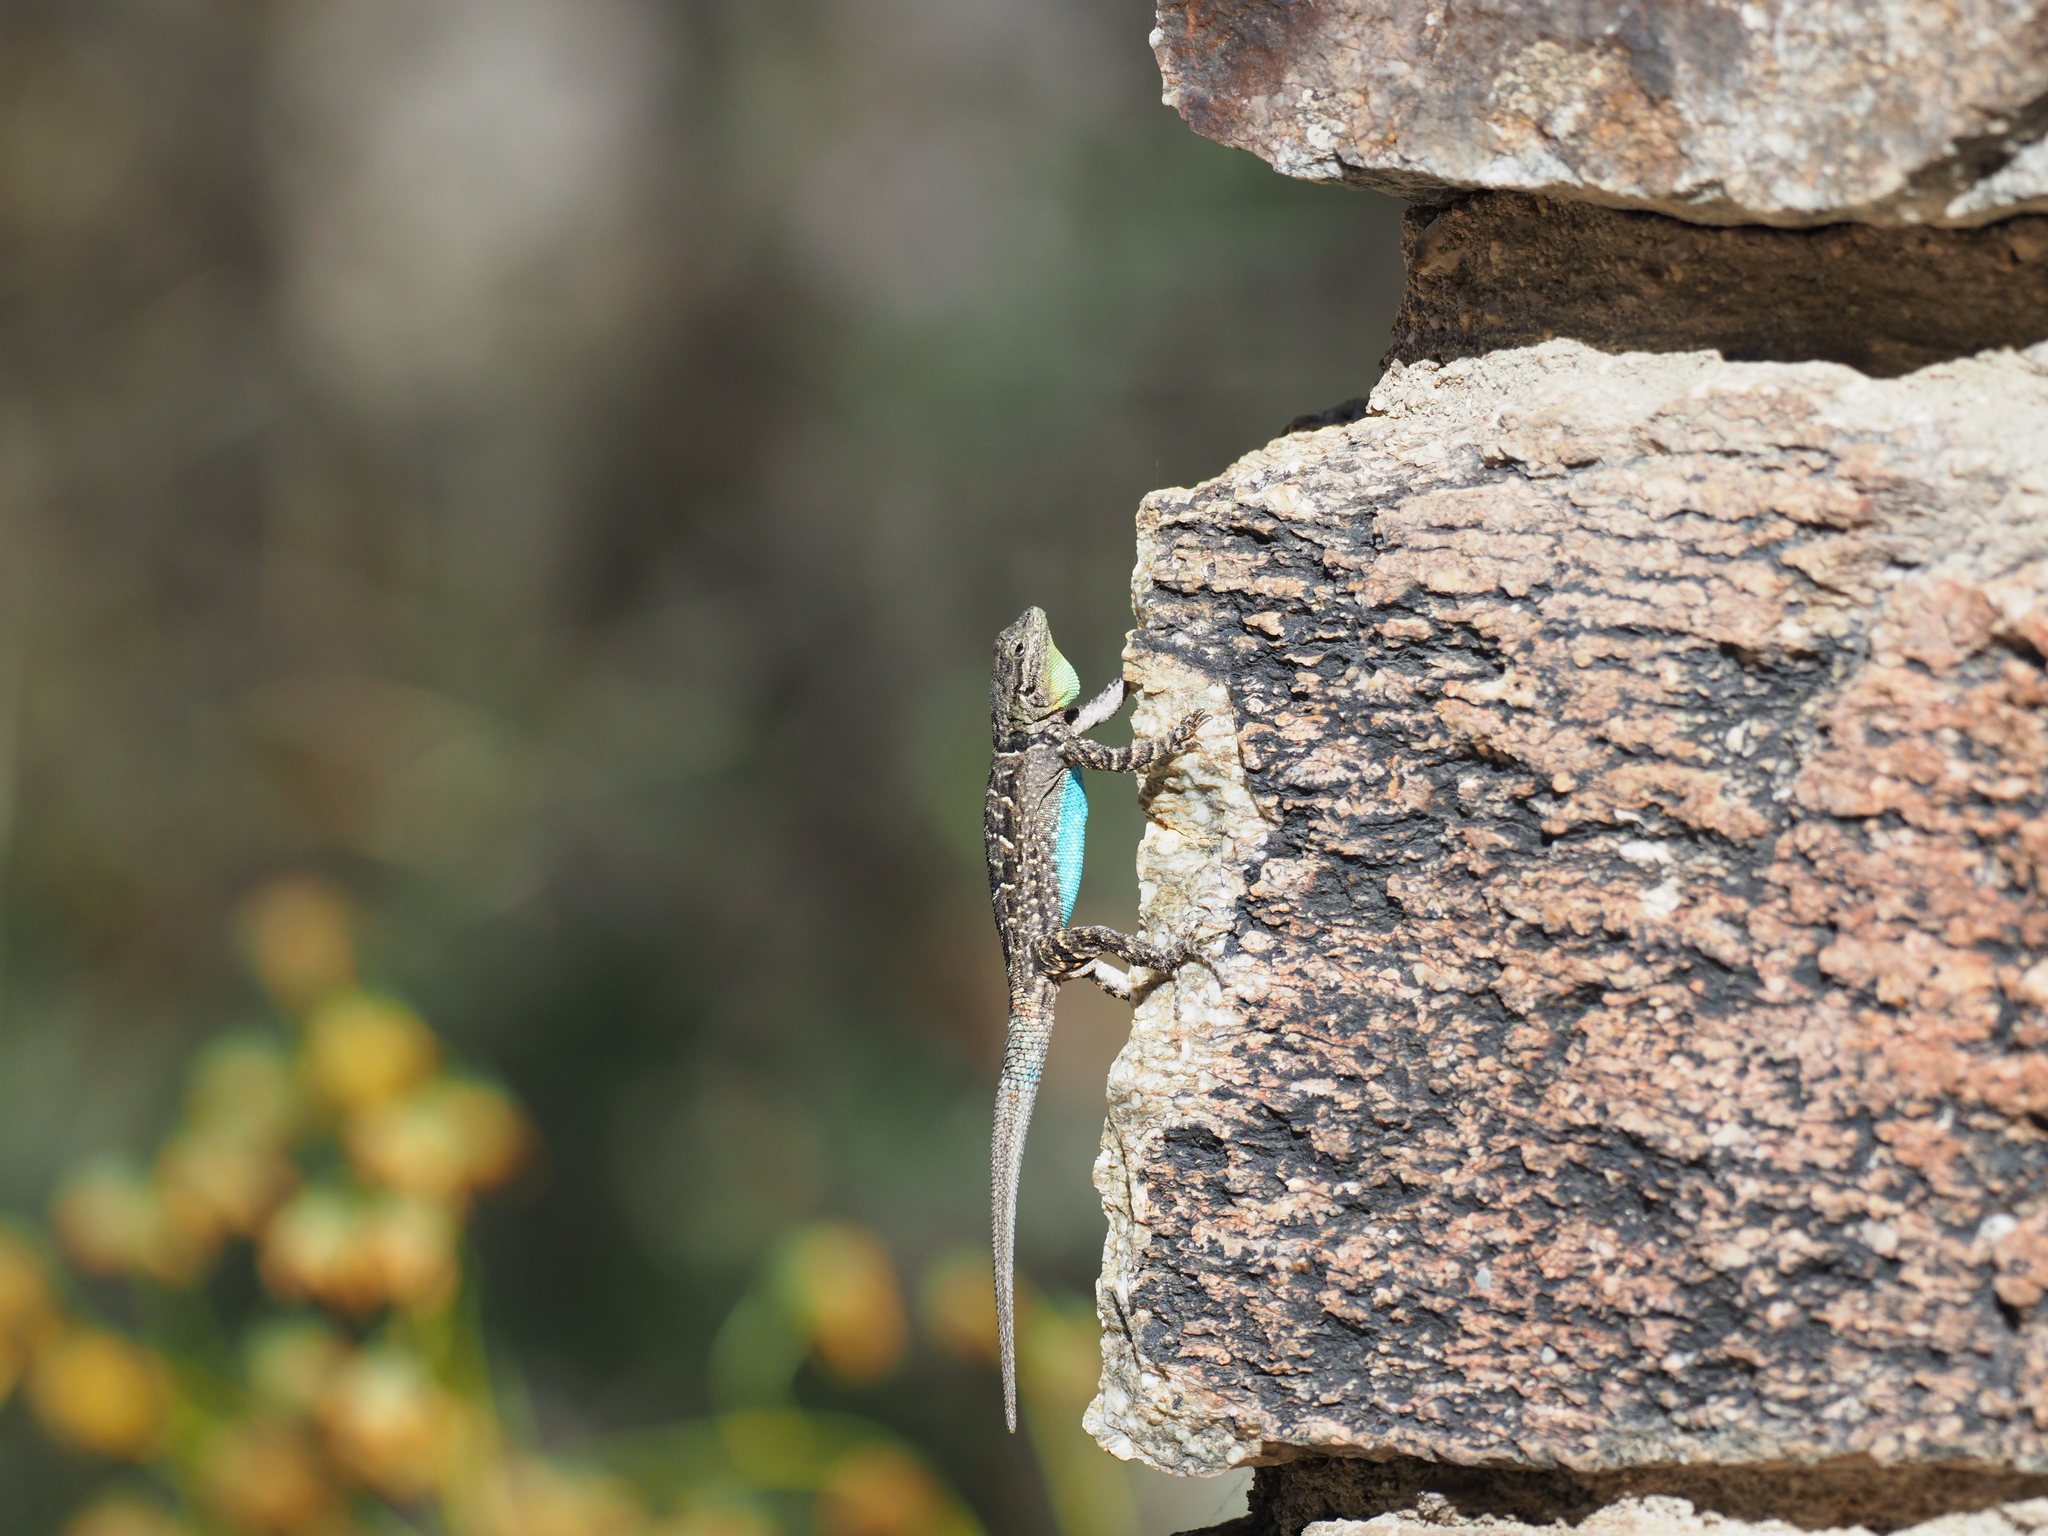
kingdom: Animalia
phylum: Chordata
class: Squamata
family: Phrynosomatidae
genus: Urosaurus
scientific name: Urosaurus ornatus
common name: Ornate tree lizard
